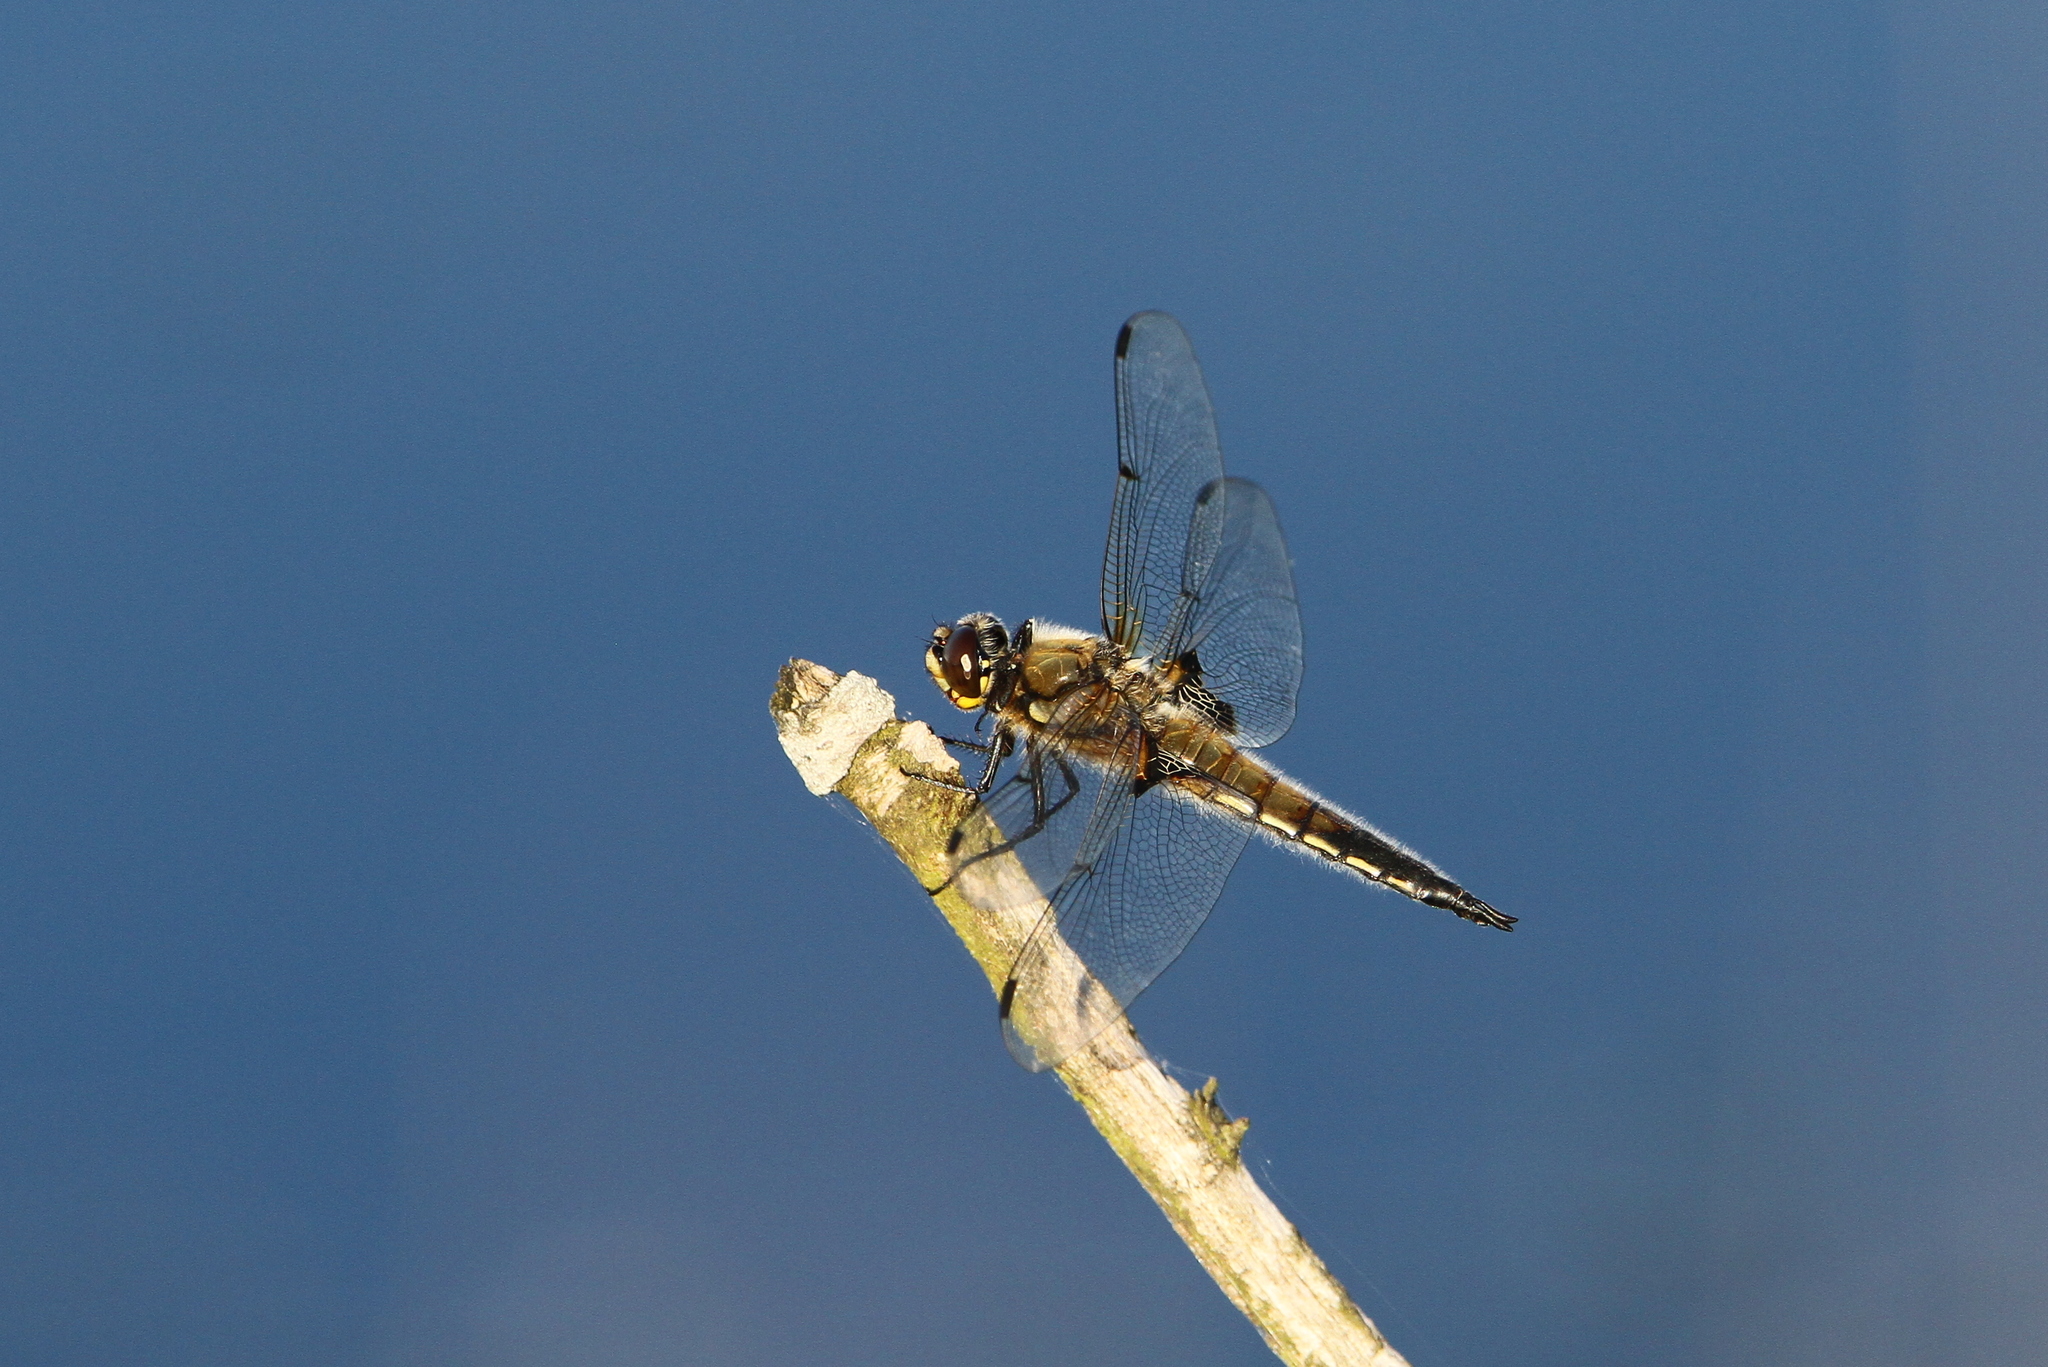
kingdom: Animalia
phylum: Arthropoda
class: Insecta
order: Odonata
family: Libellulidae
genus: Libellula
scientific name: Libellula quadrimaculata
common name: Four-spotted chaser
